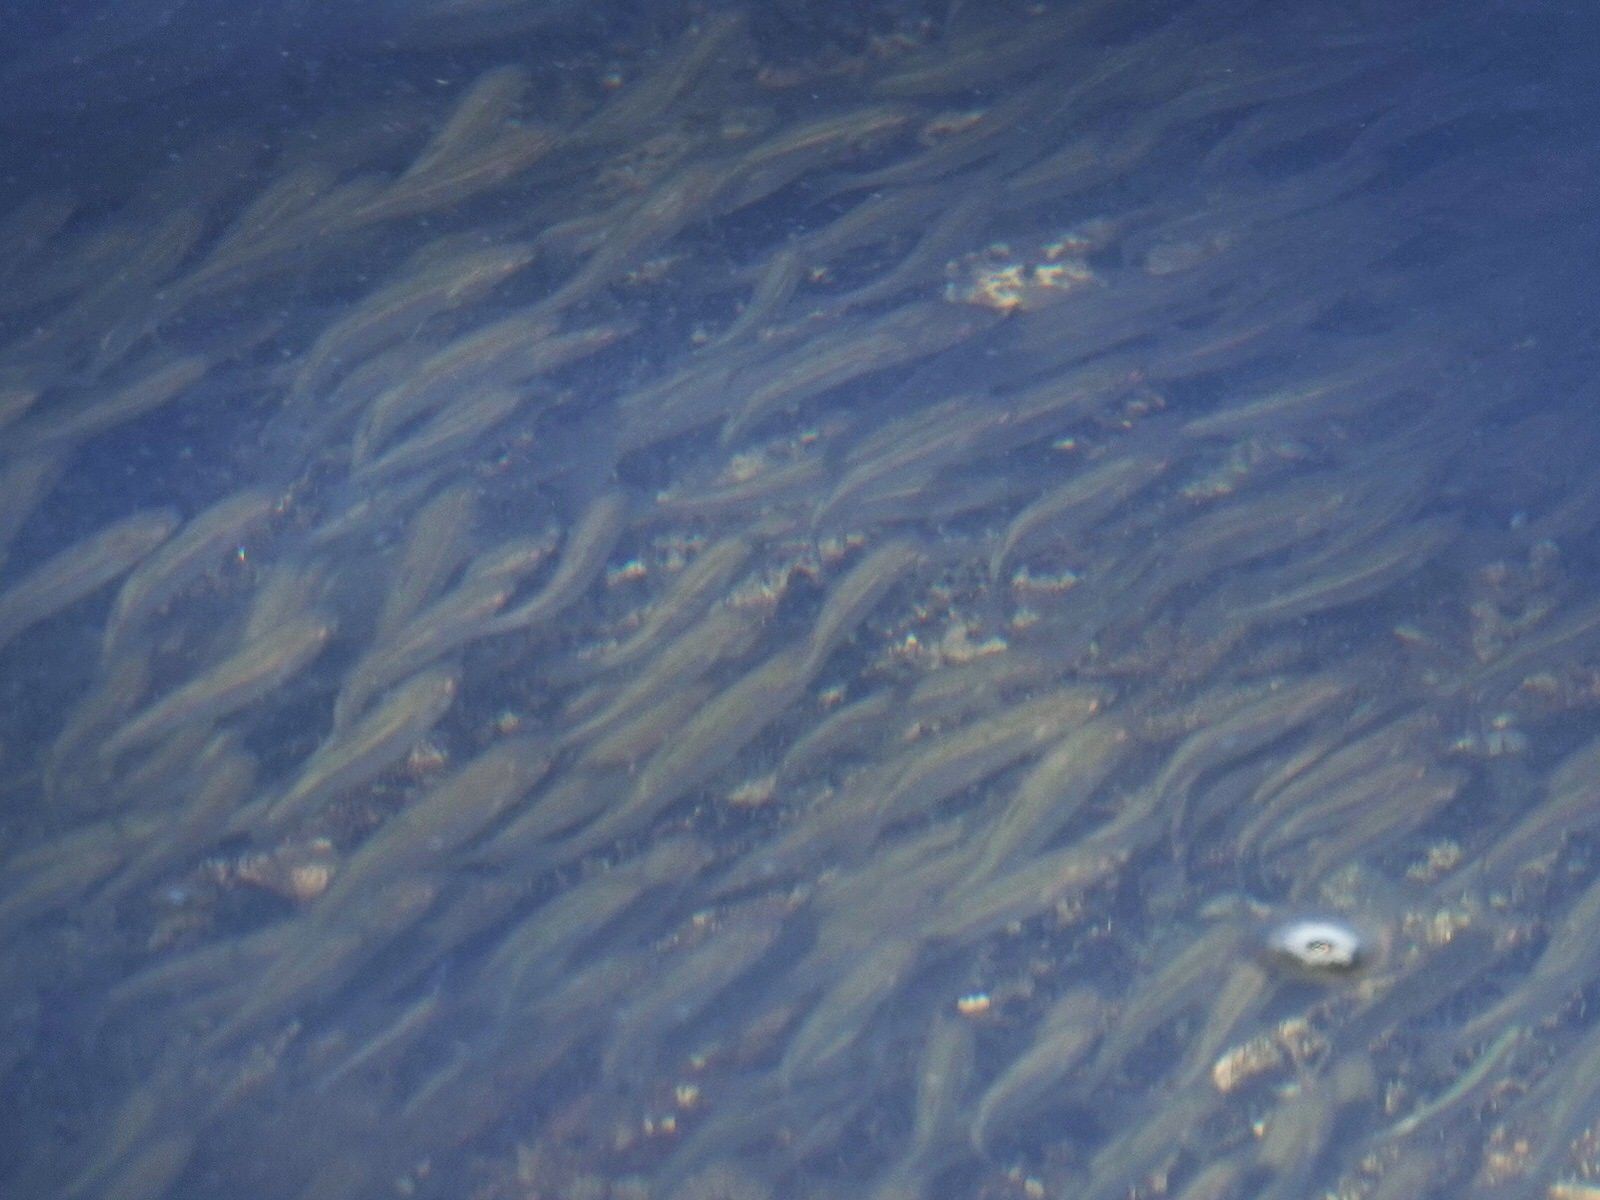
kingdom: Animalia
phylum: Chordata
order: Mugiliformes
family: Mugilidae
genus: Aldrichetta
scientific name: Aldrichetta forsteri
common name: Yellow-eye mullet
